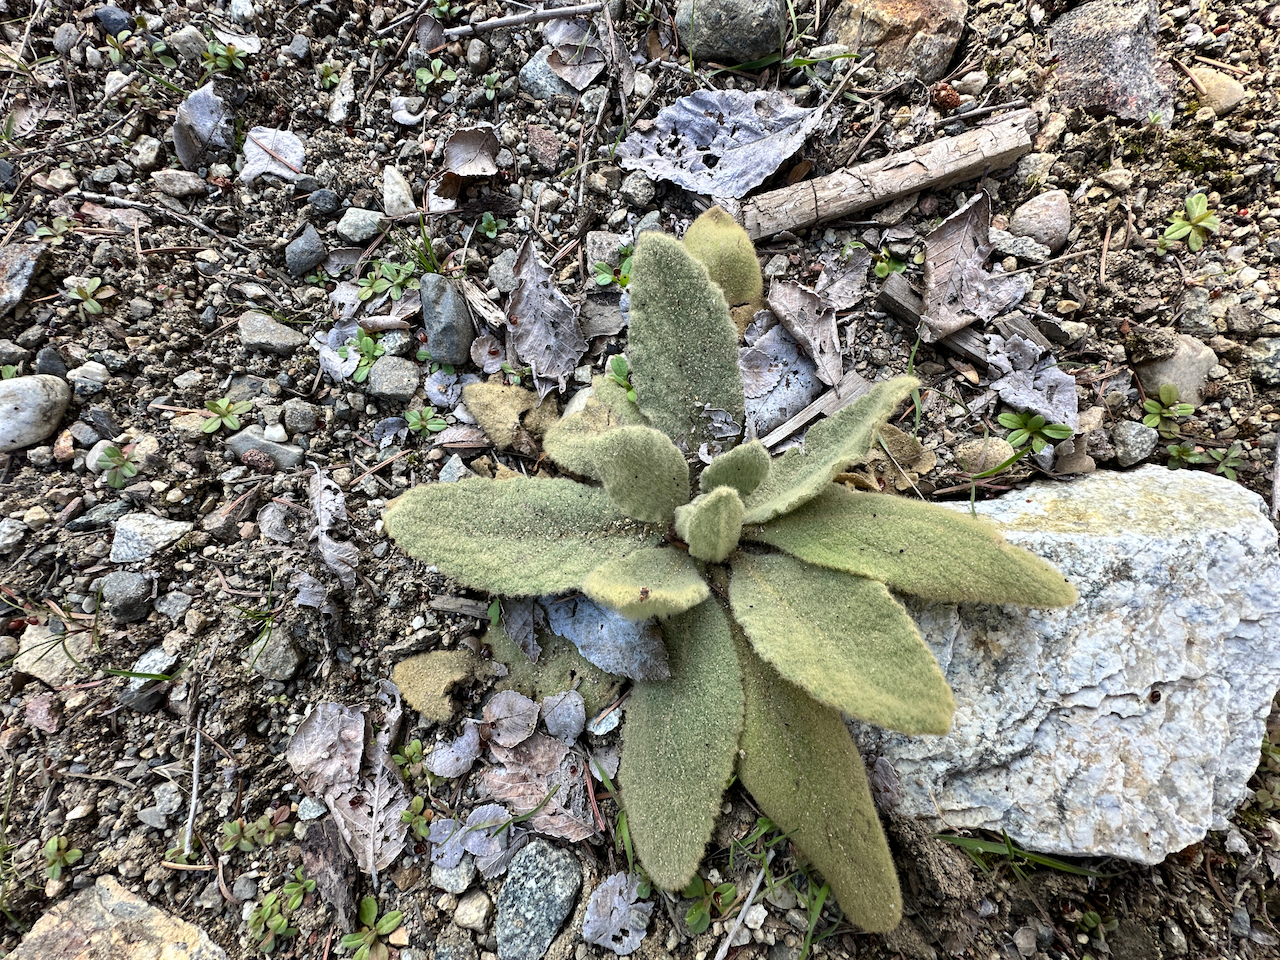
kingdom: Plantae
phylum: Tracheophyta
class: Magnoliopsida
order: Lamiales
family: Scrophulariaceae
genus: Verbascum
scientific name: Verbascum thapsus
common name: Common mullein
